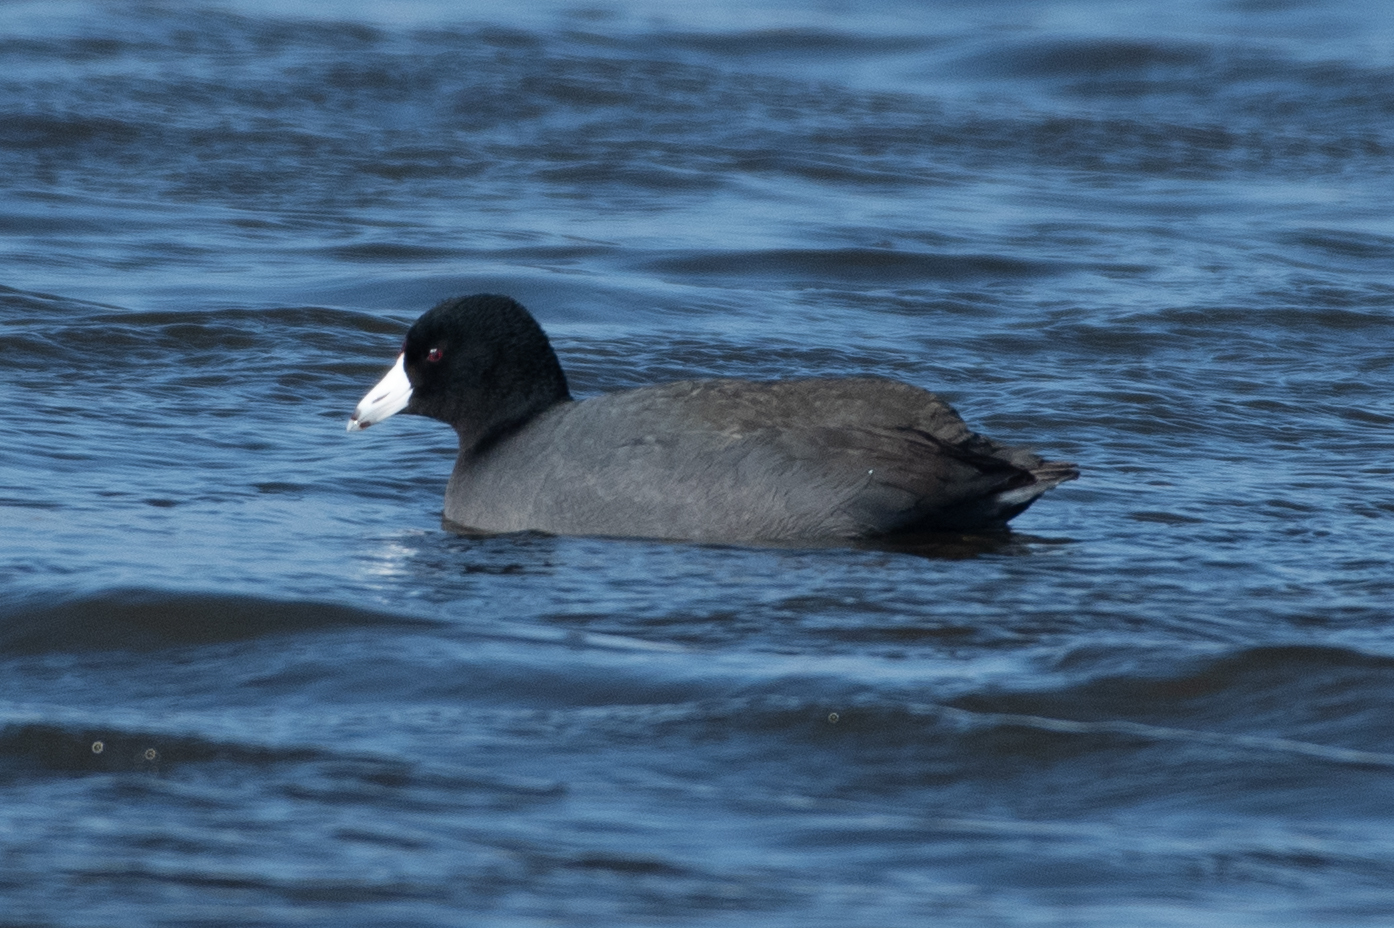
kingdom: Animalia
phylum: Chordata
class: Aves
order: Gruiformes
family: Rallidae
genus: Fulica
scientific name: Fulica americana
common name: American coot
